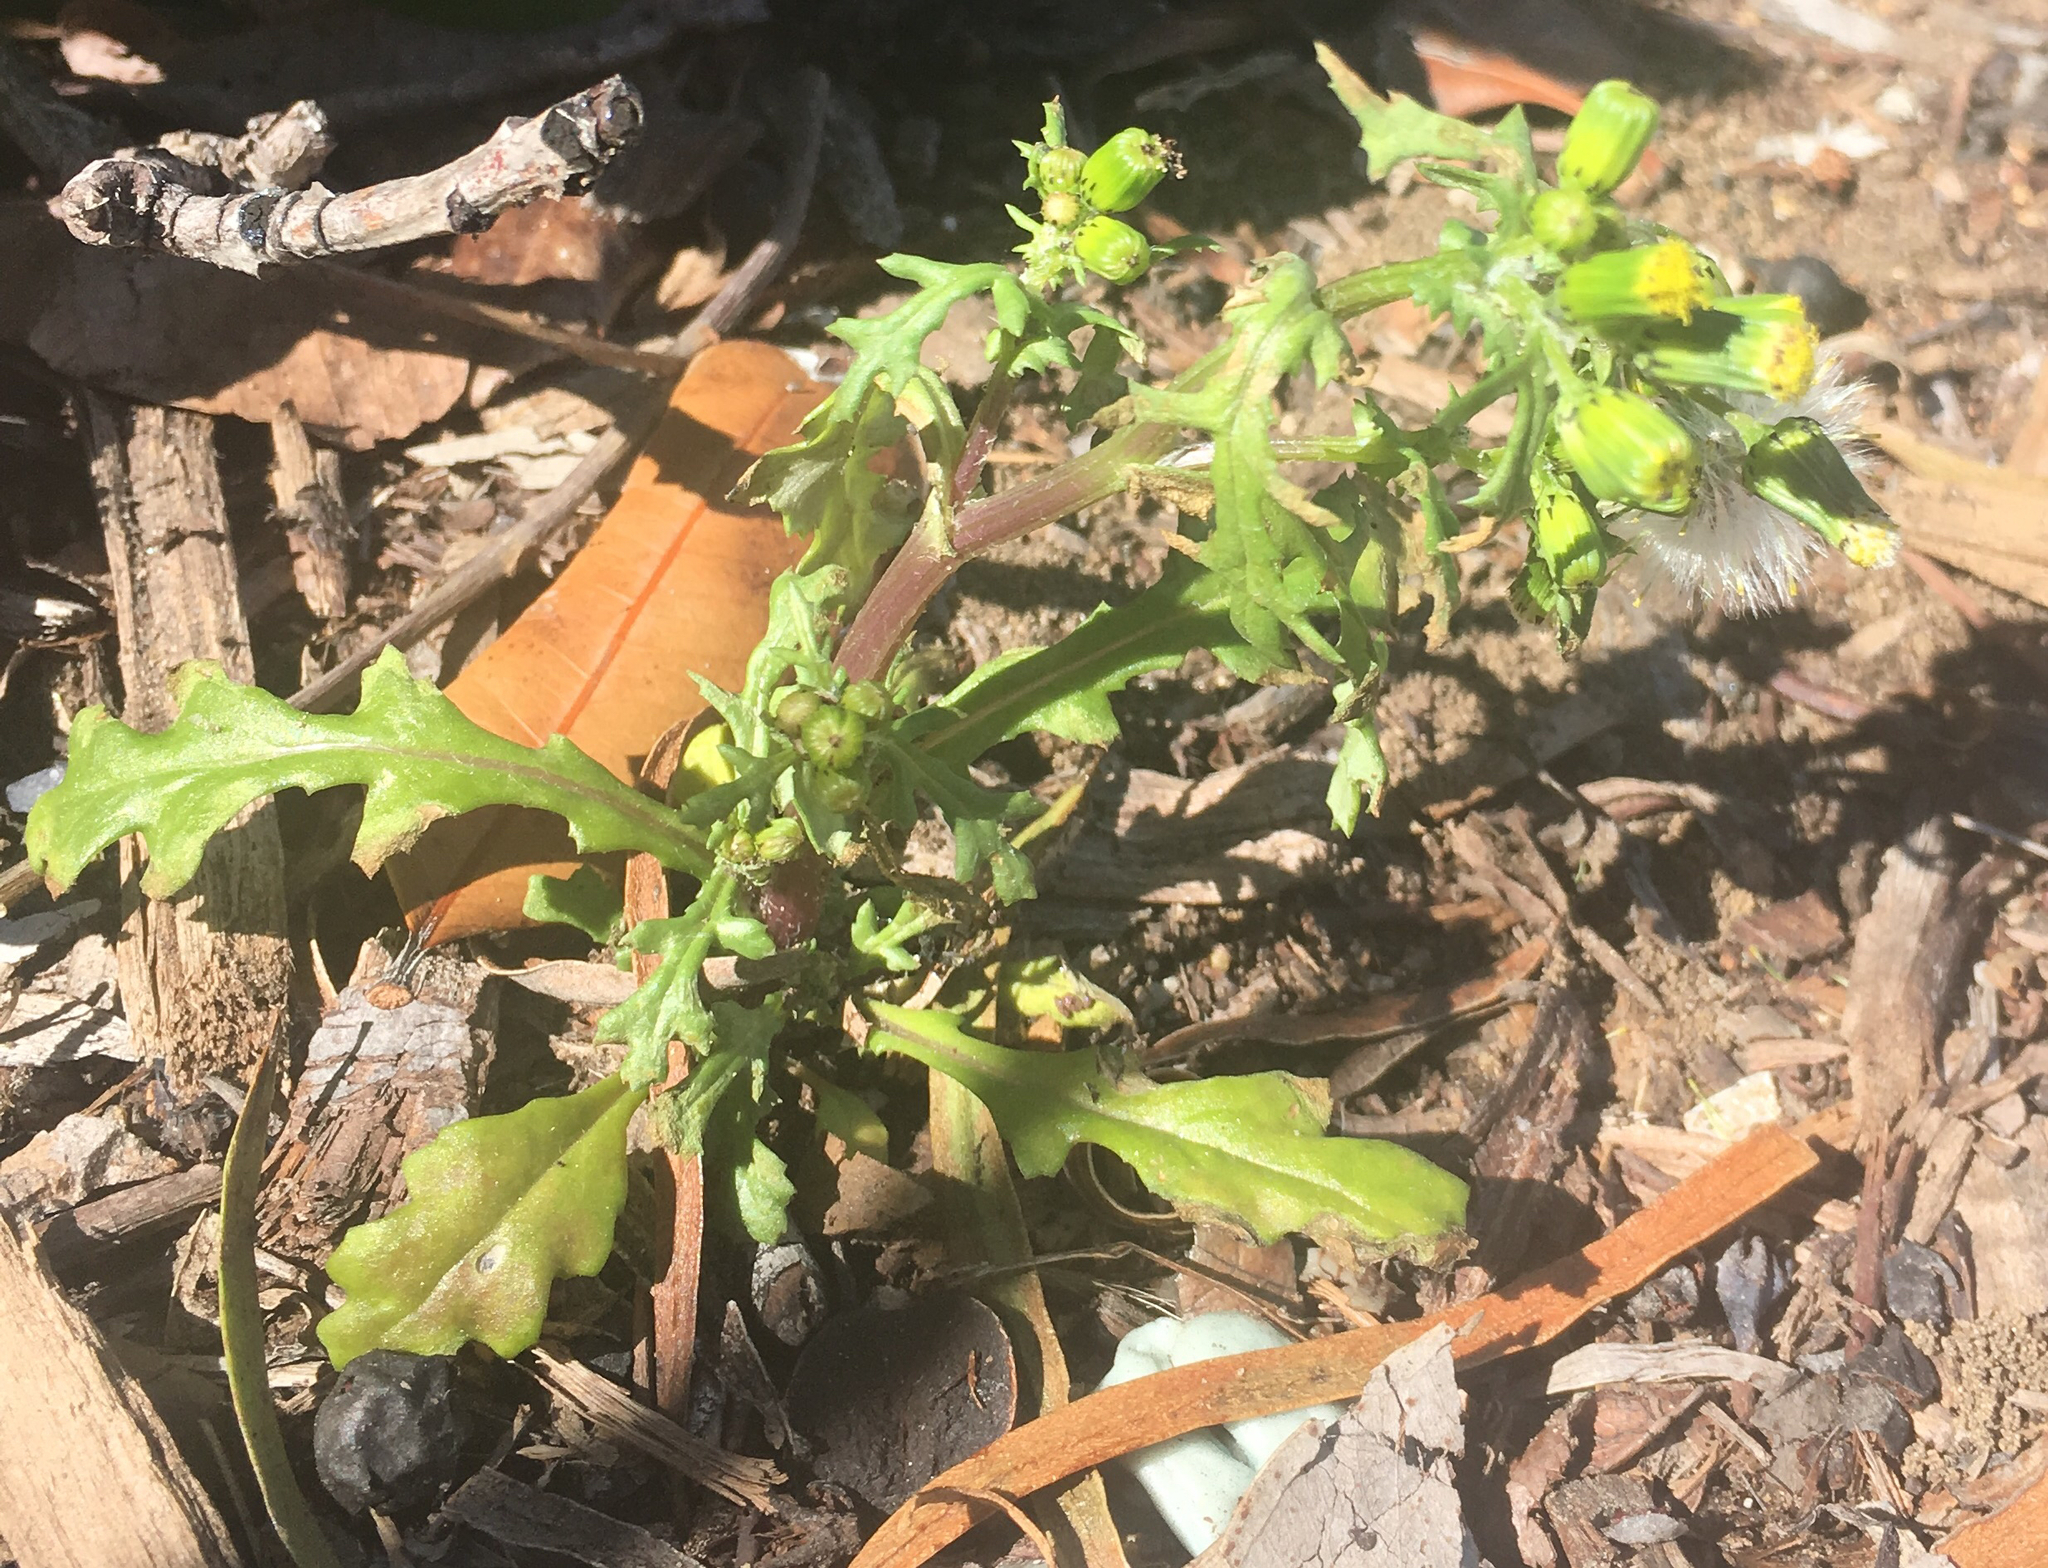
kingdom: Plantae
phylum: Tracheophyta
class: Magnoliopsida
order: Asterales
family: Asteraceae
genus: Senecio
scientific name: Senecio vulgaris
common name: Old-man-in-the-spring
